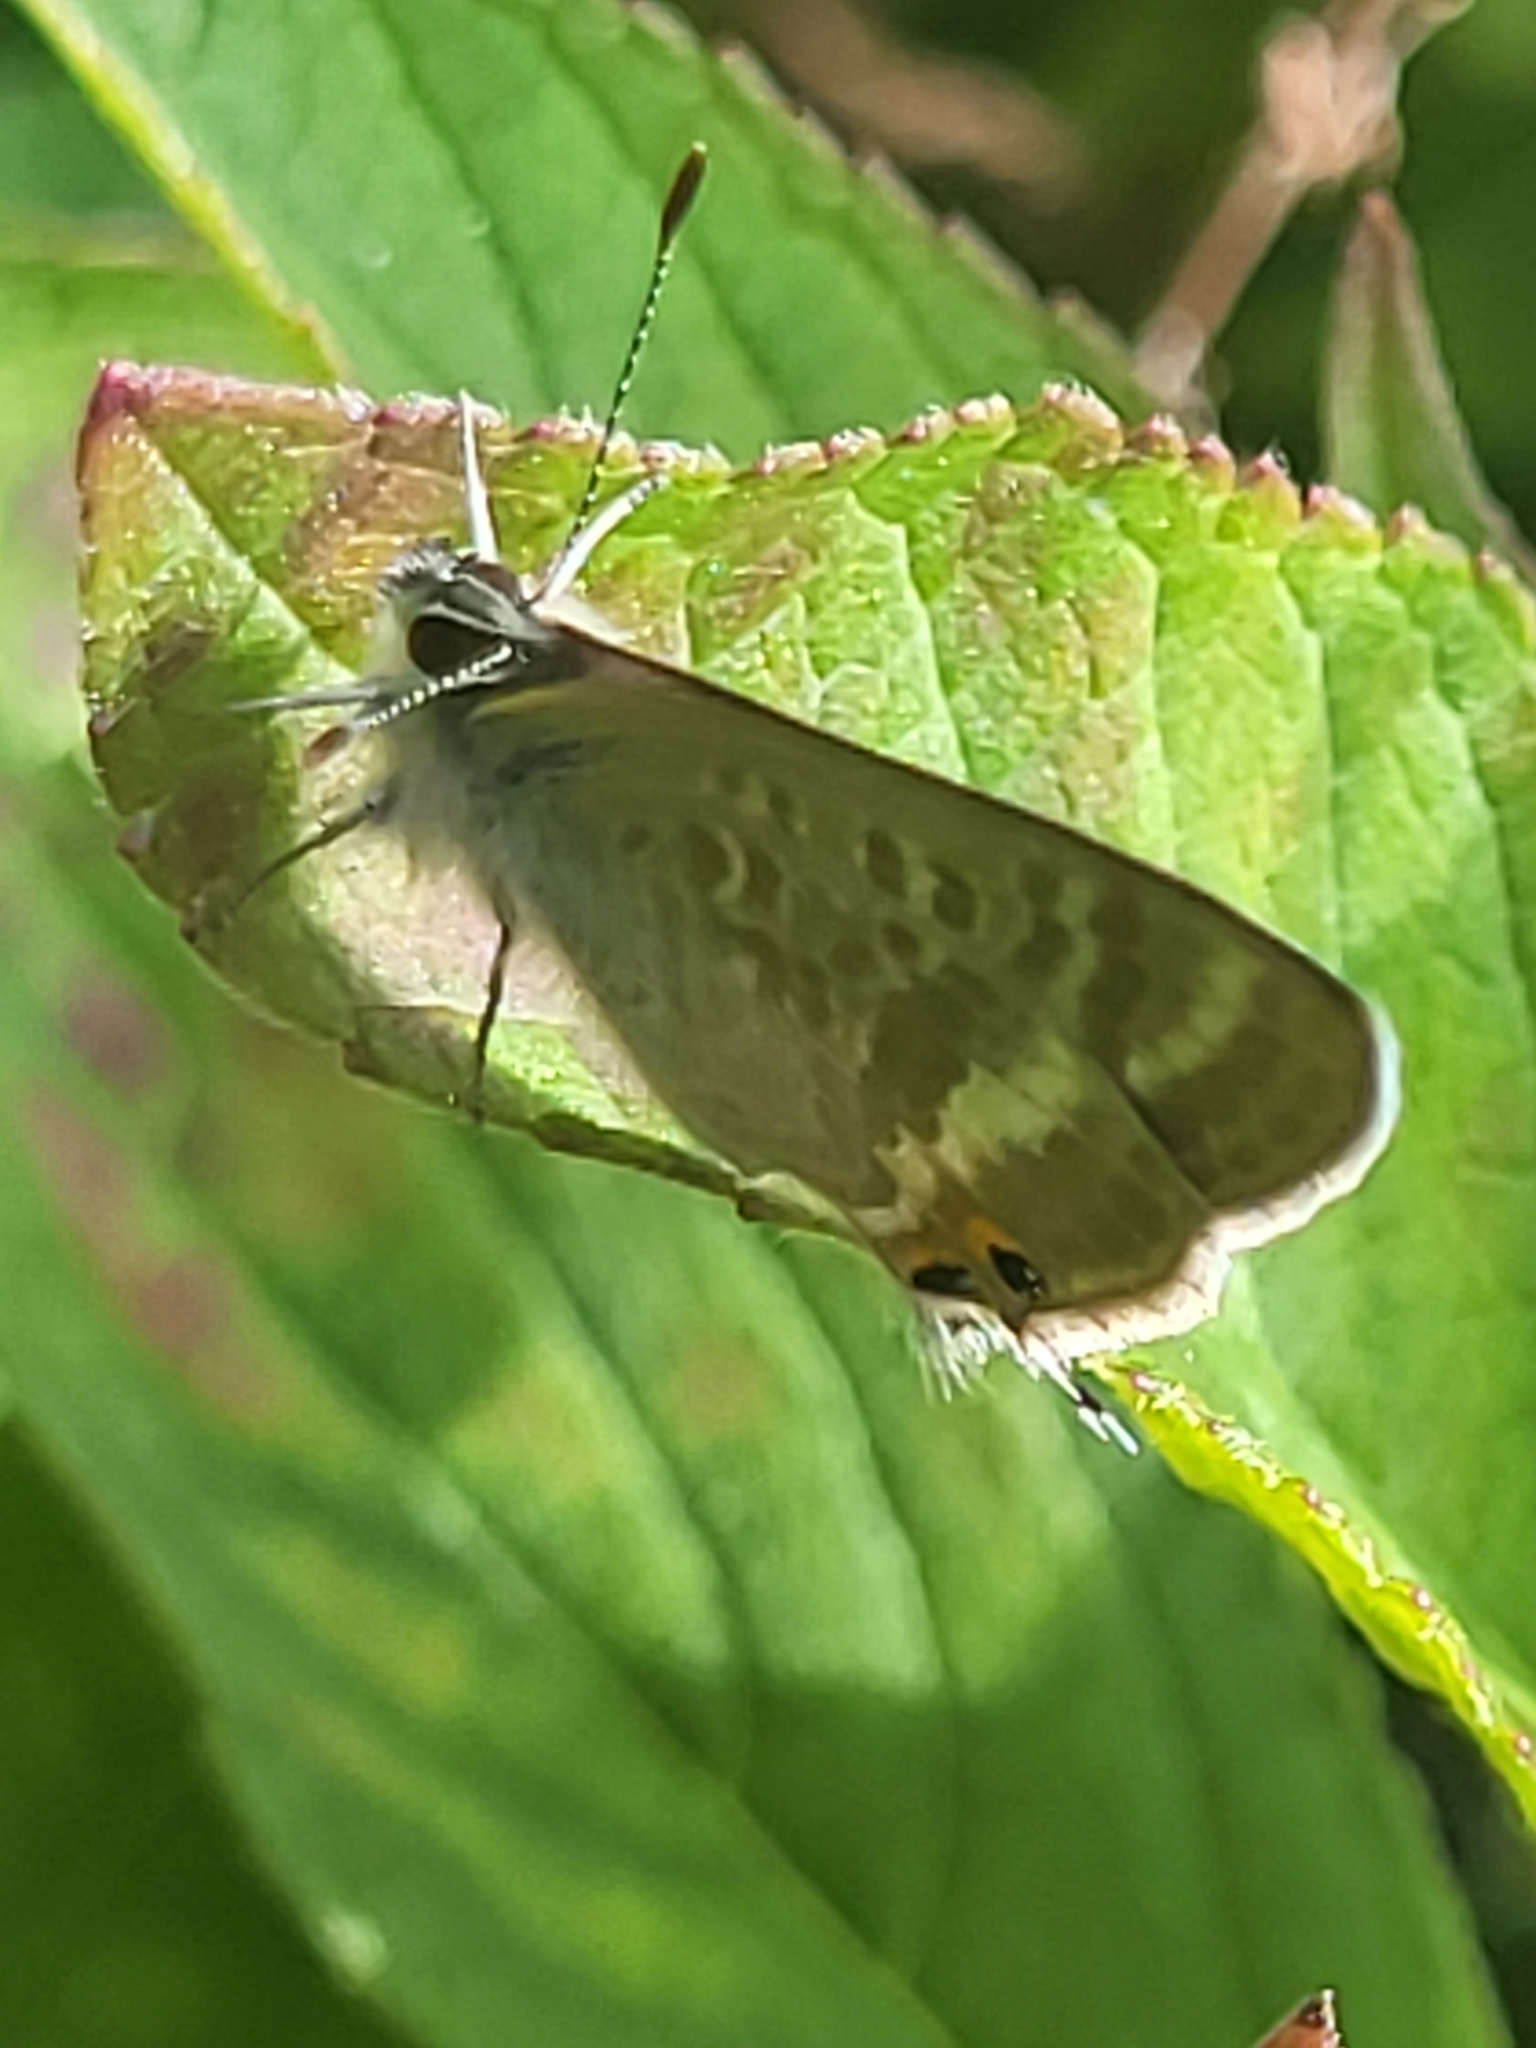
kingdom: Animalia
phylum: Arthropoda
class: Insecta
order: Lepidoptera
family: Lycaenidae
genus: Lampides
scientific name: Lampides boeticus
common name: Long-tailed blue
